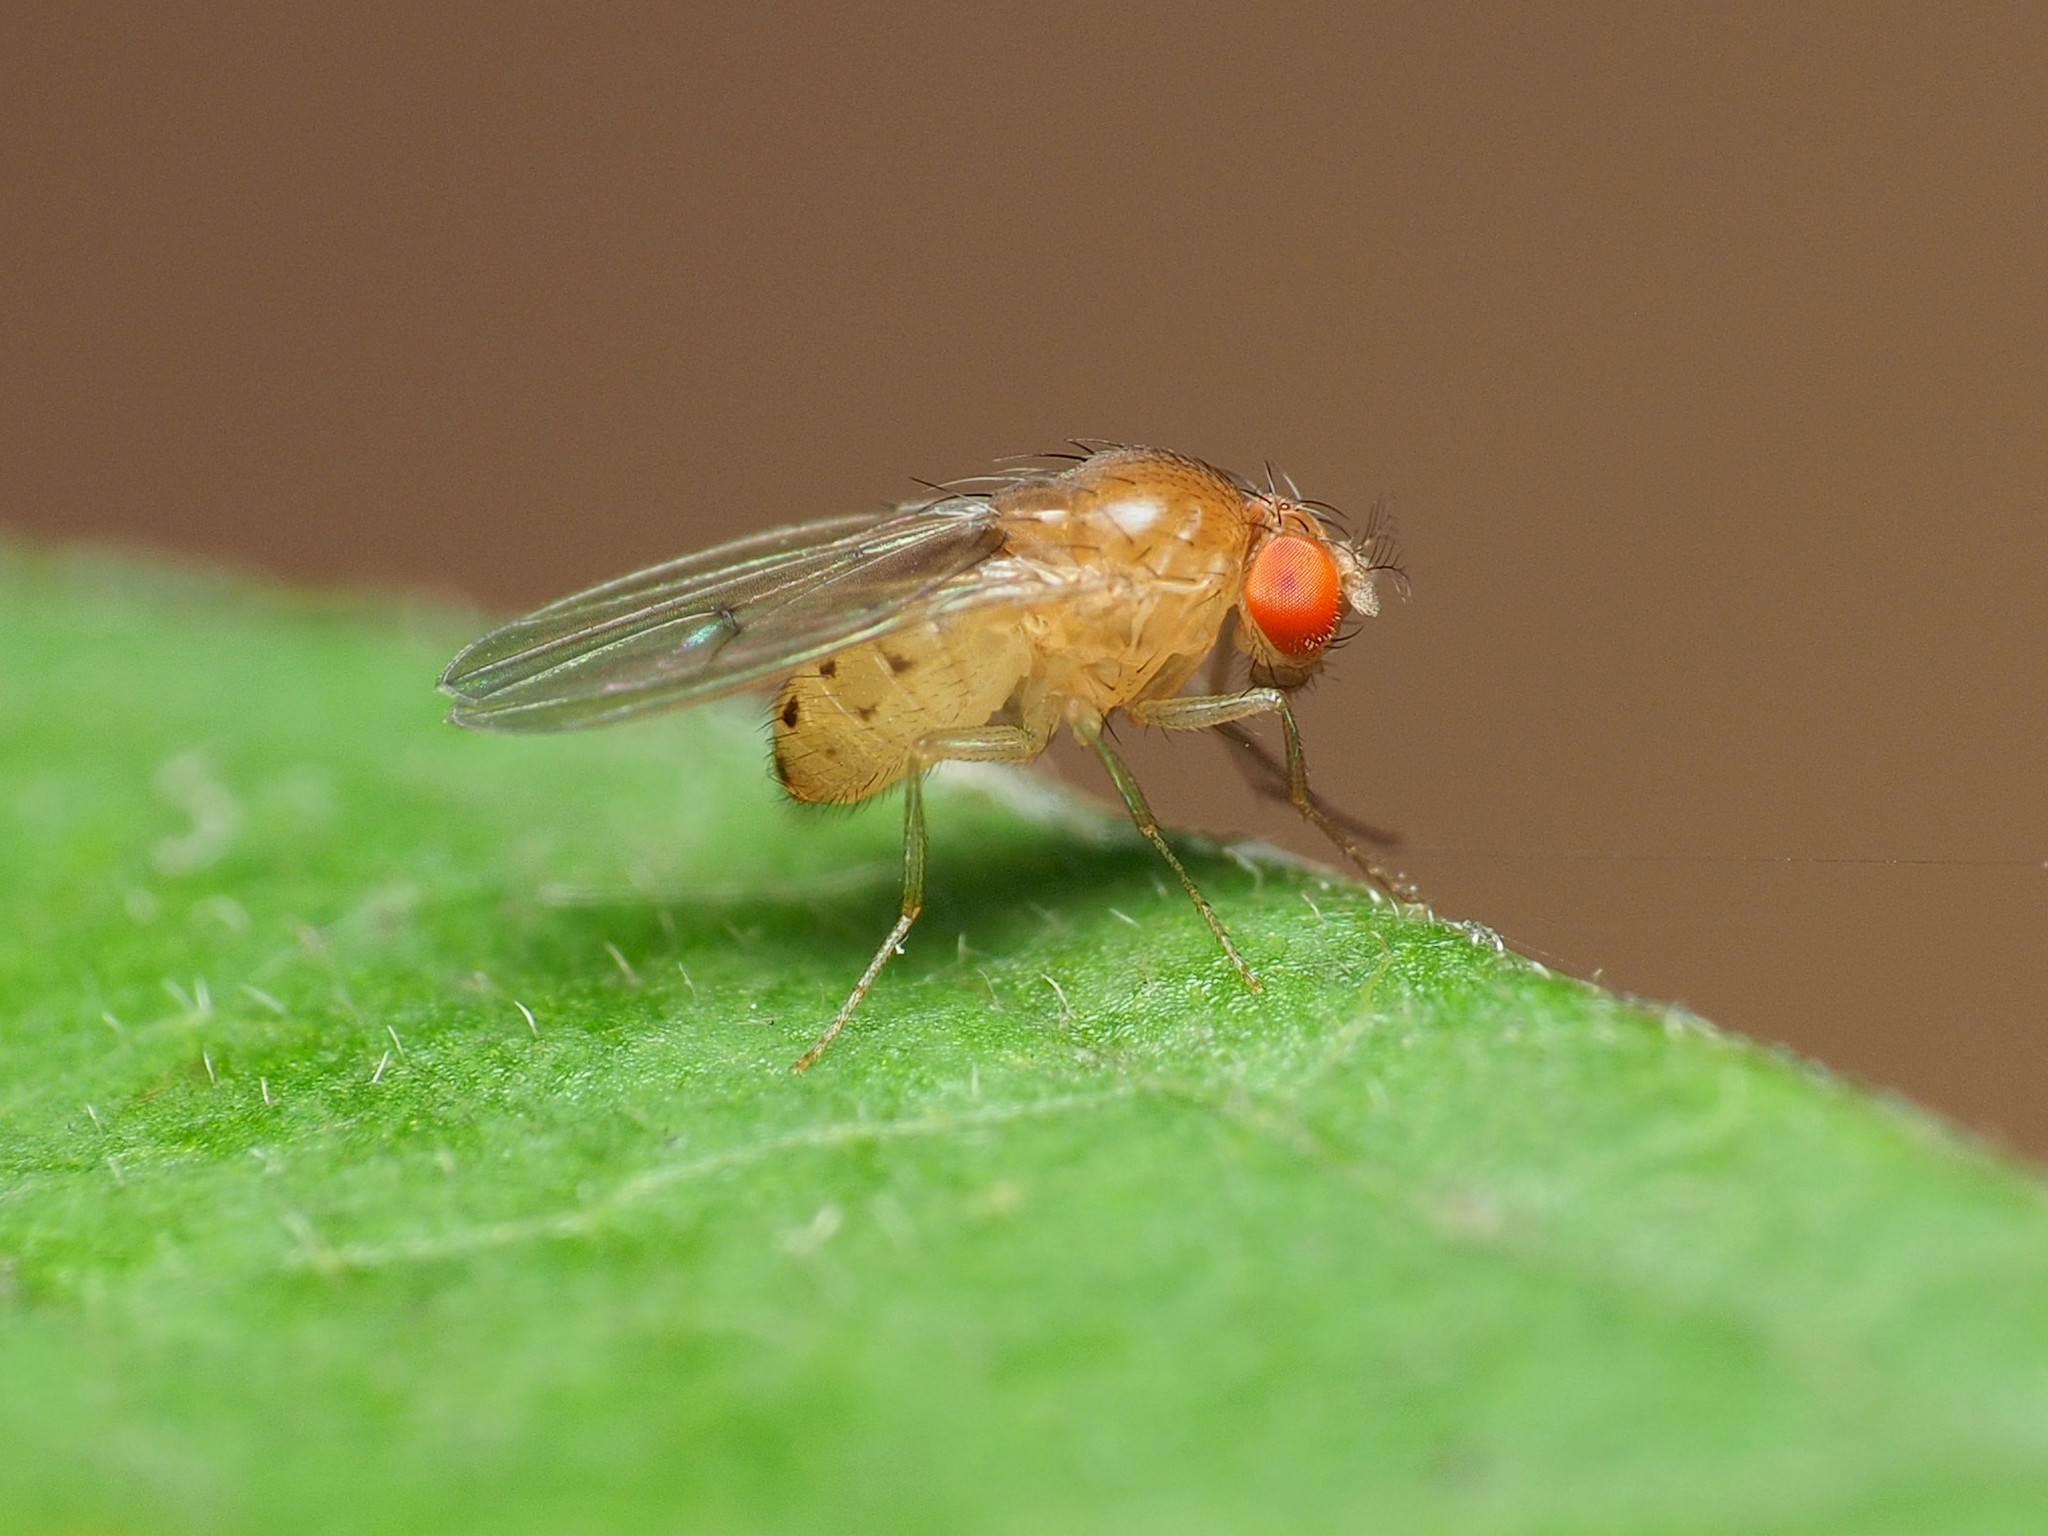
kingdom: Animalia
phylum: Arthropoda
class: Insecta
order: Diptera
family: Drosophilidae
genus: Drosophila
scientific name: Drosophila falleni
